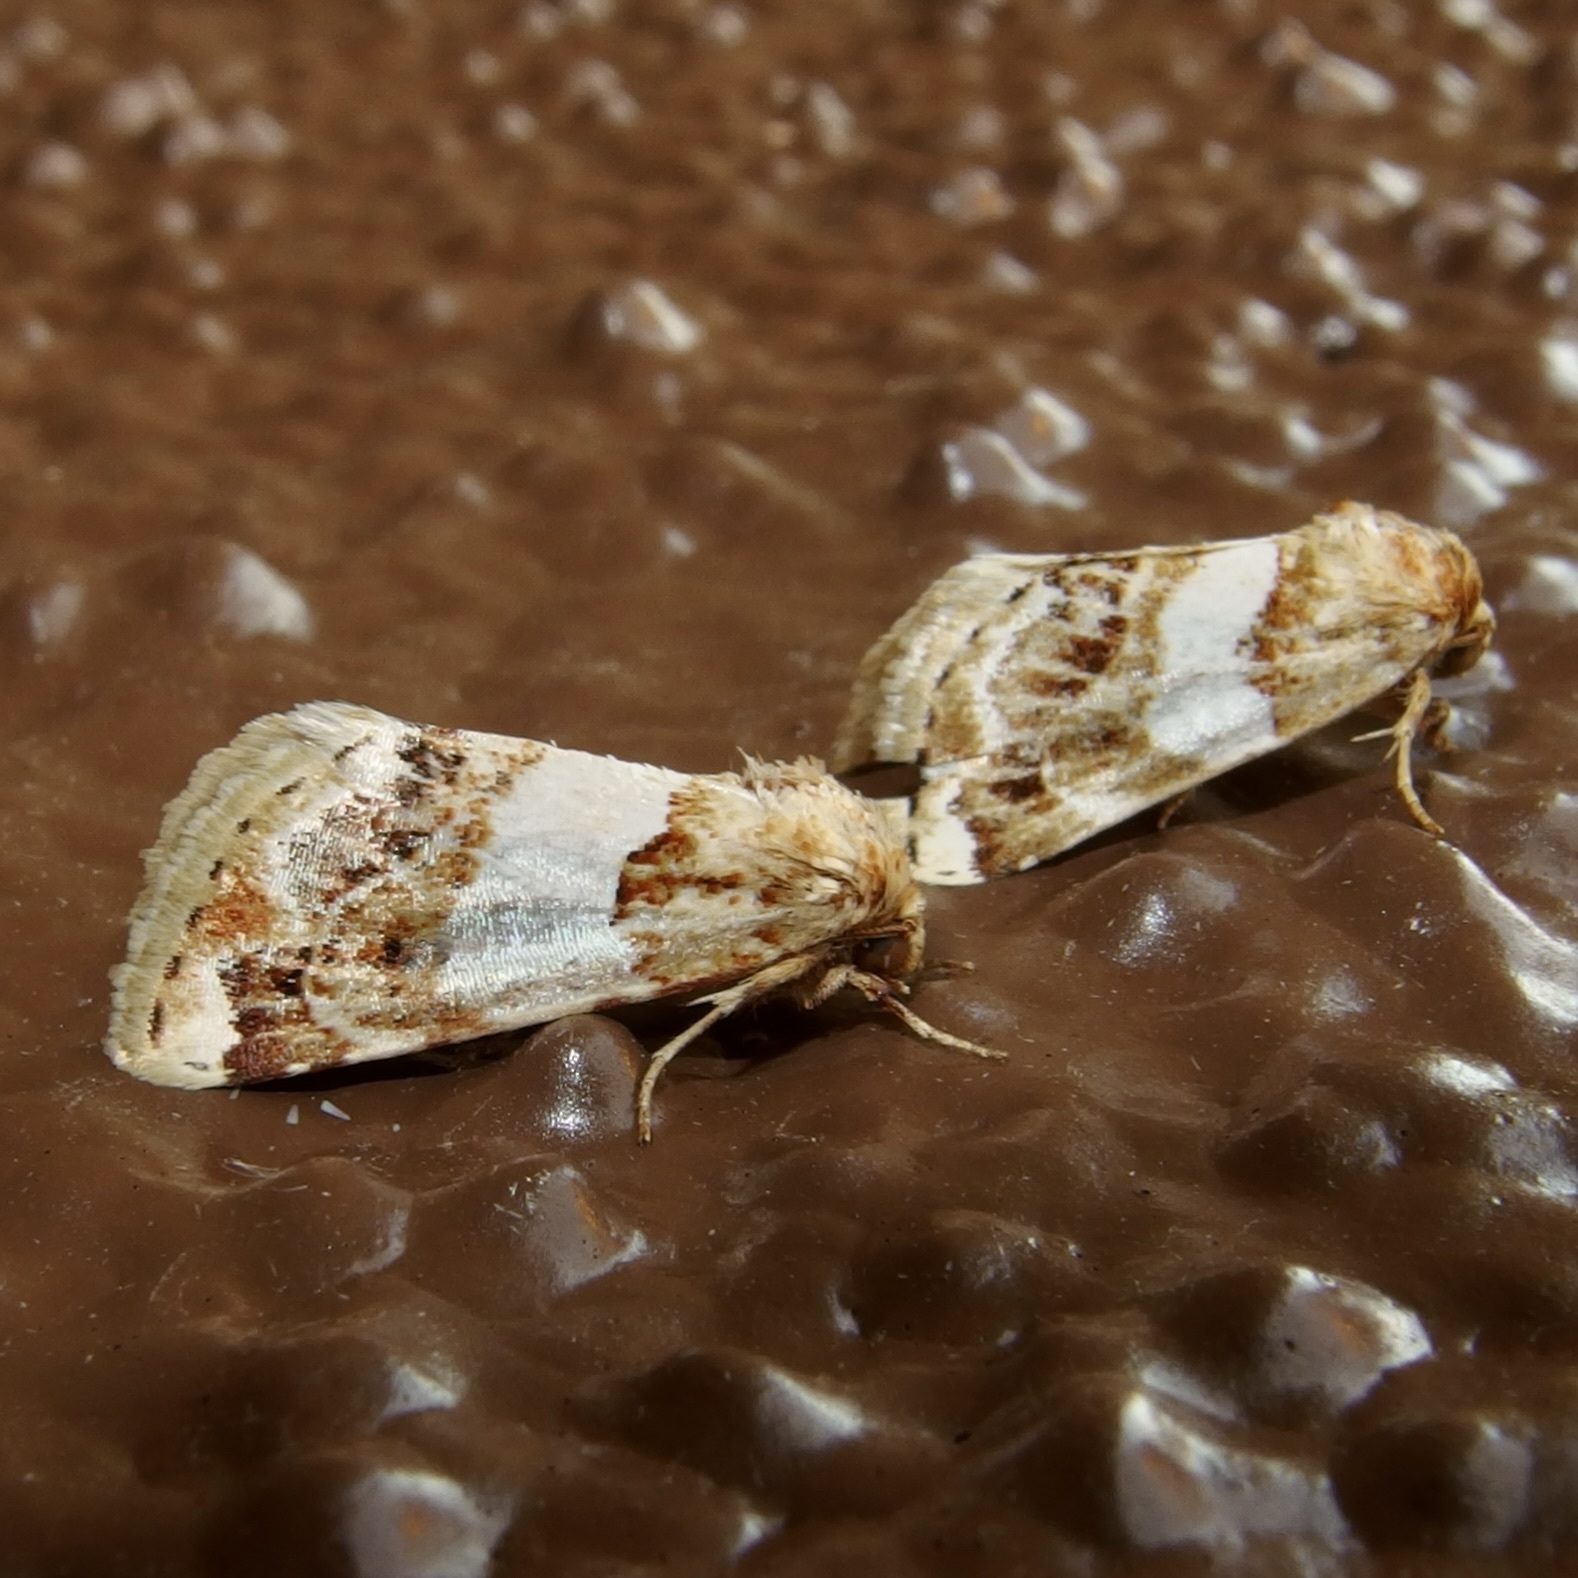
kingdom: Animalia
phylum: Arthropoda
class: Insecta
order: Lepidoptera
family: Noctuidae
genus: Schinia
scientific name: Schinia argentifascia
